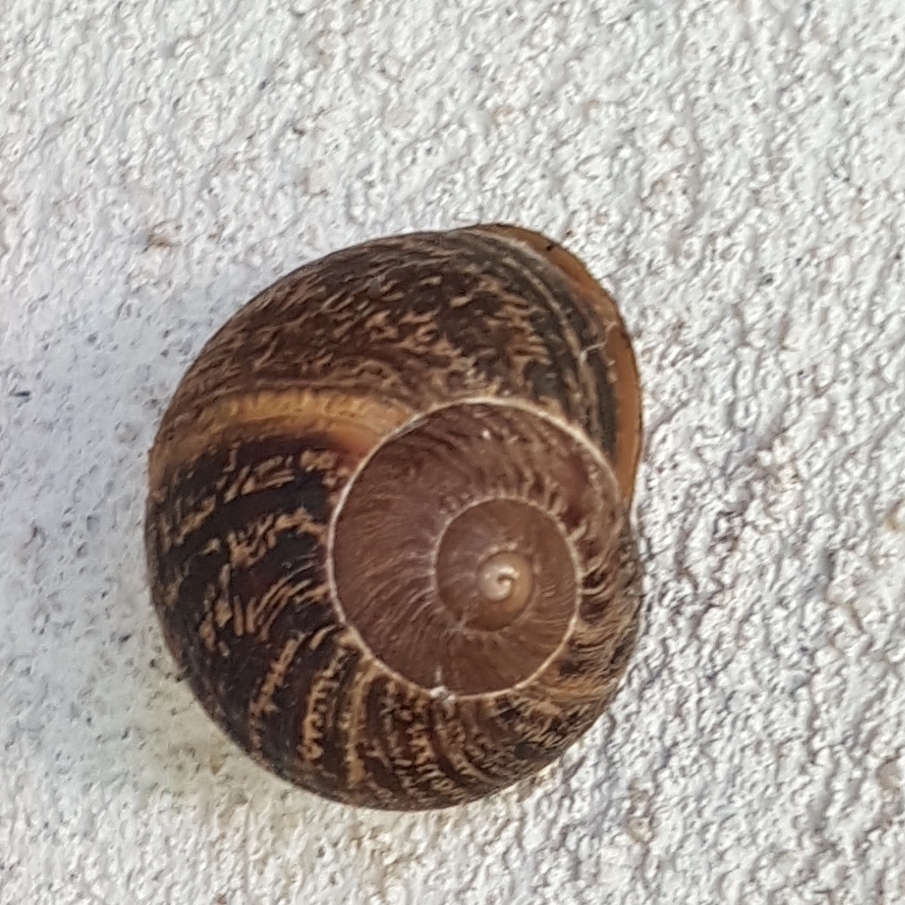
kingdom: Animalia
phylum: Mollusca
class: Gastropoda
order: Stylommatophora
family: Helicidae
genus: Cornu
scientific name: Cornu aspersum
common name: Brown garden snail
